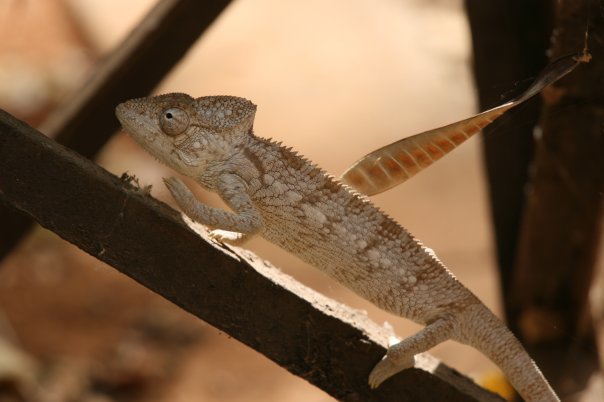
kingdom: Animalia
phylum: Chordata
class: Squamata
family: Chamaeleonidae
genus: Furcifer
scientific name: Furcifer oustaleti
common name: Oustalet's chameleon
